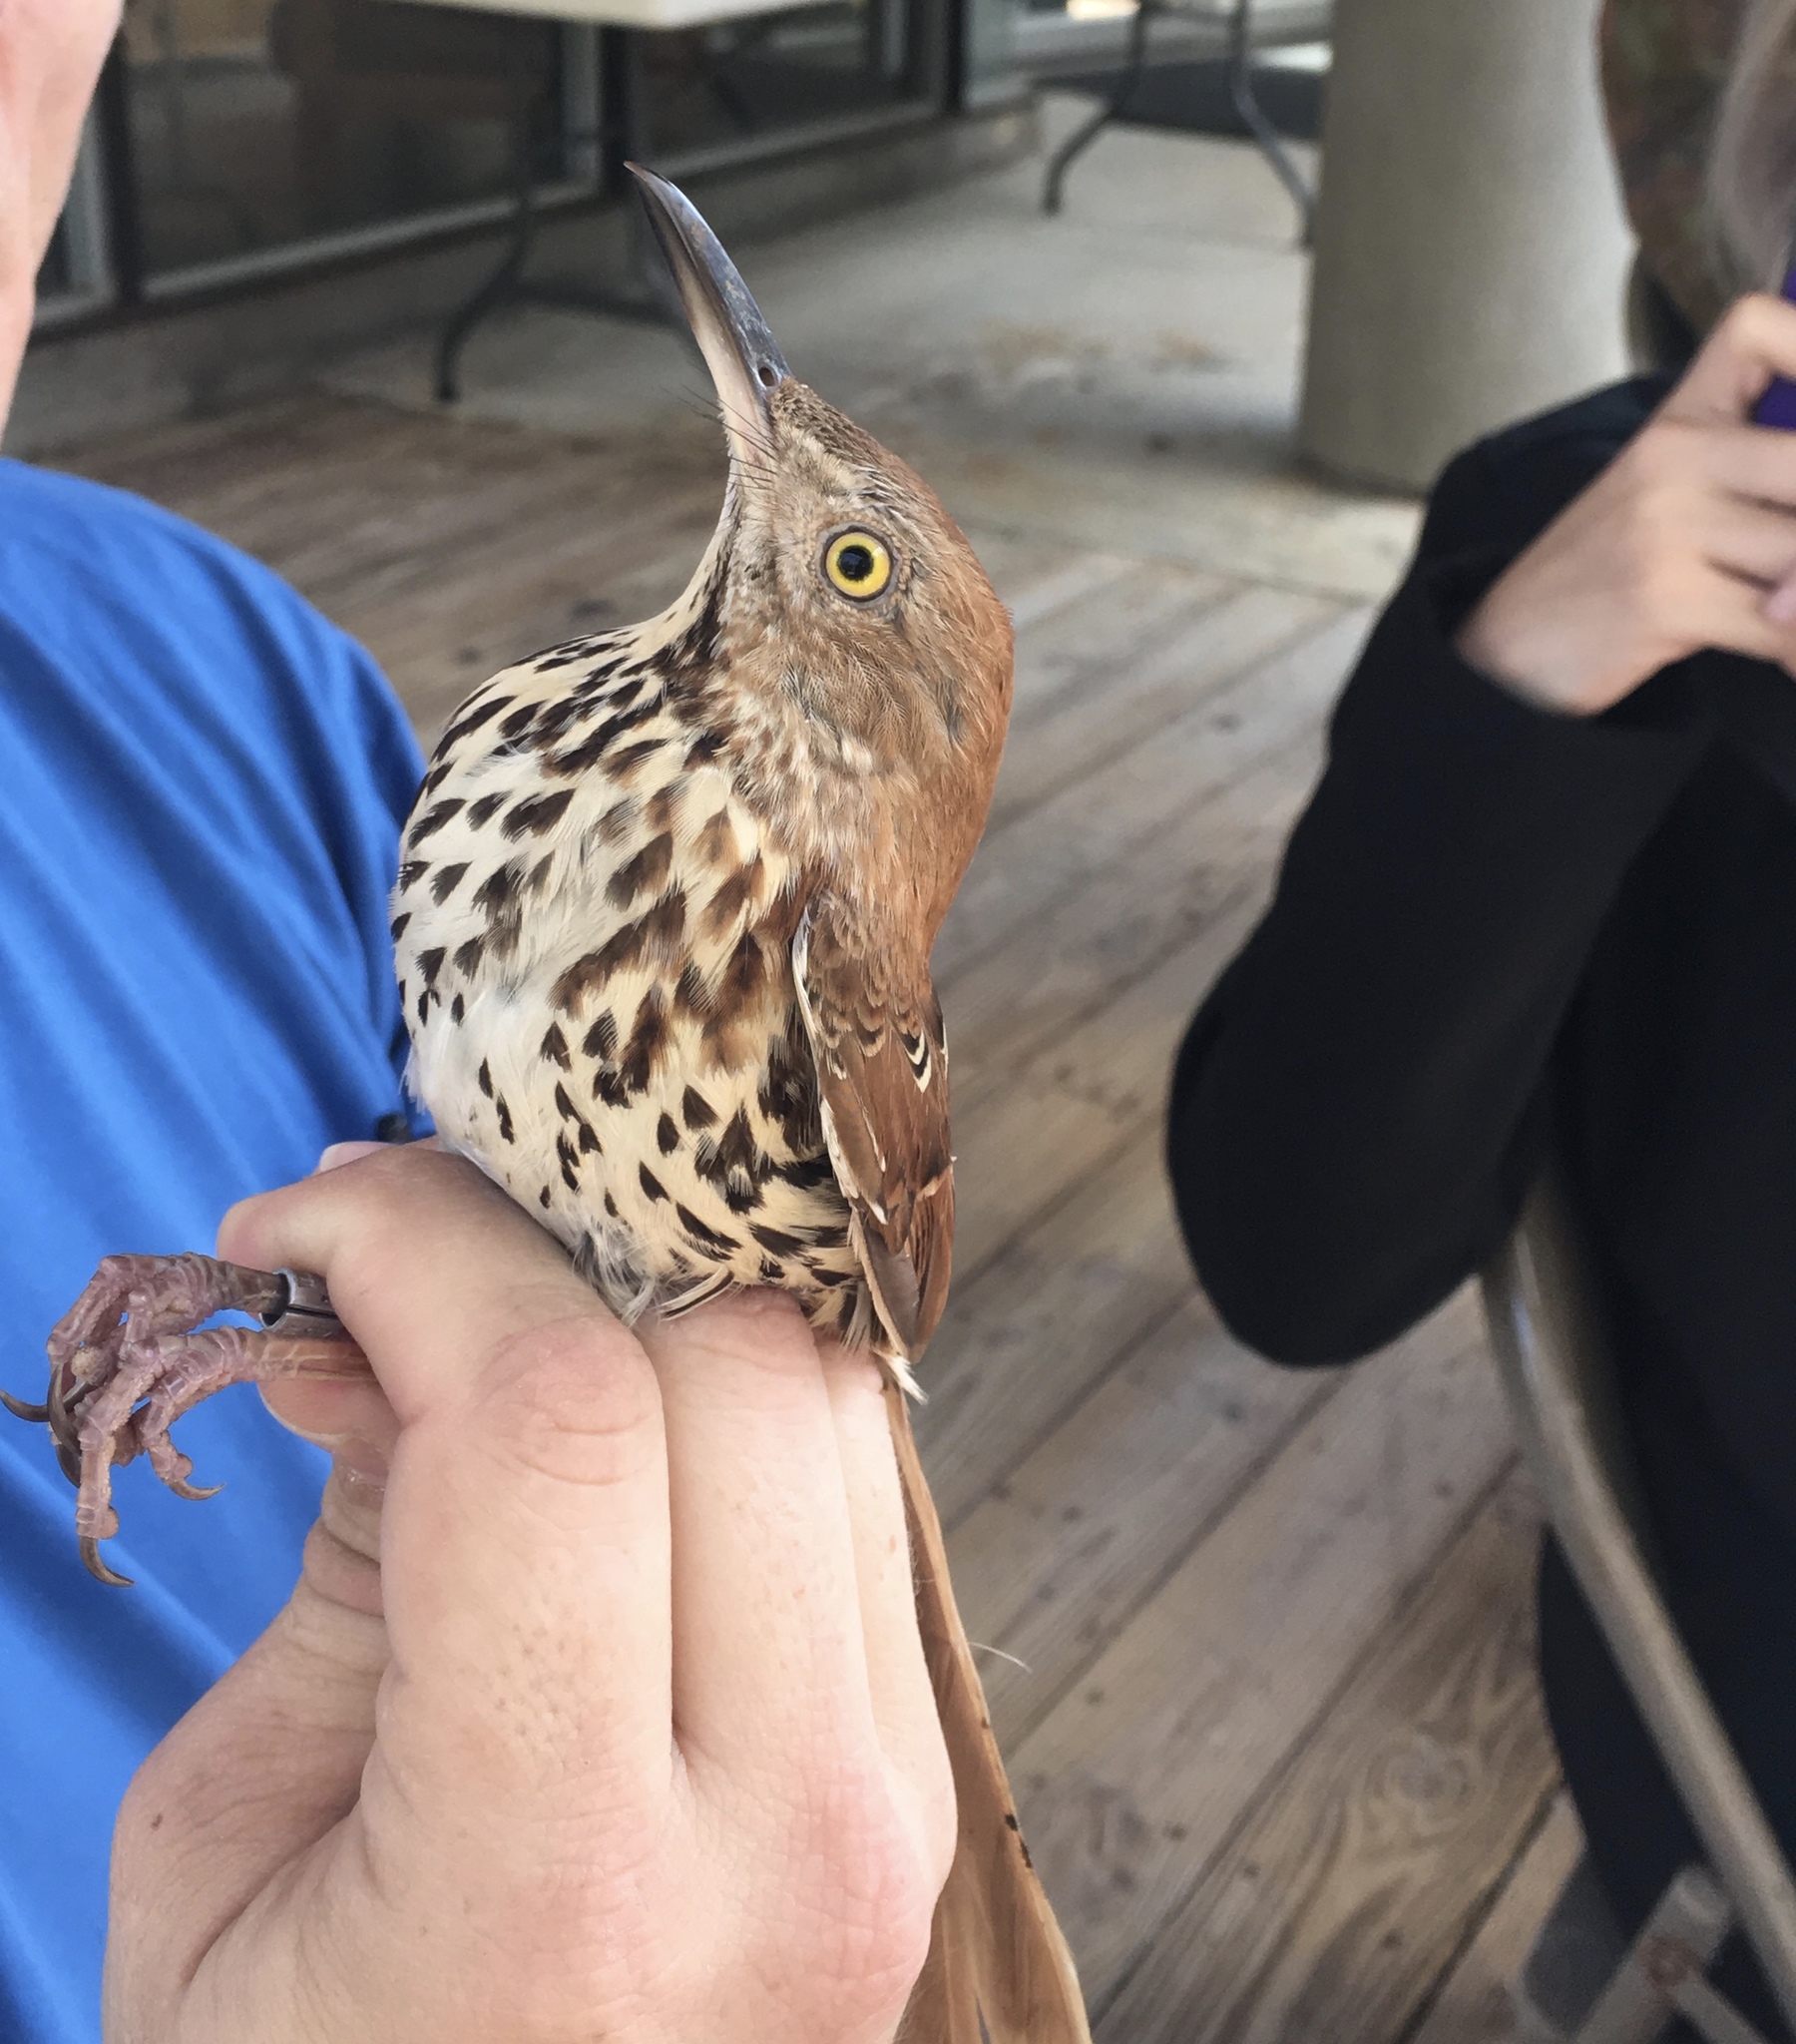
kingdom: Animalia
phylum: Chordata
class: Aves
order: Passeriformes
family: Mimidae
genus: Toxostoma
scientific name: Toxostoma rufum
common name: Brown thrasher
